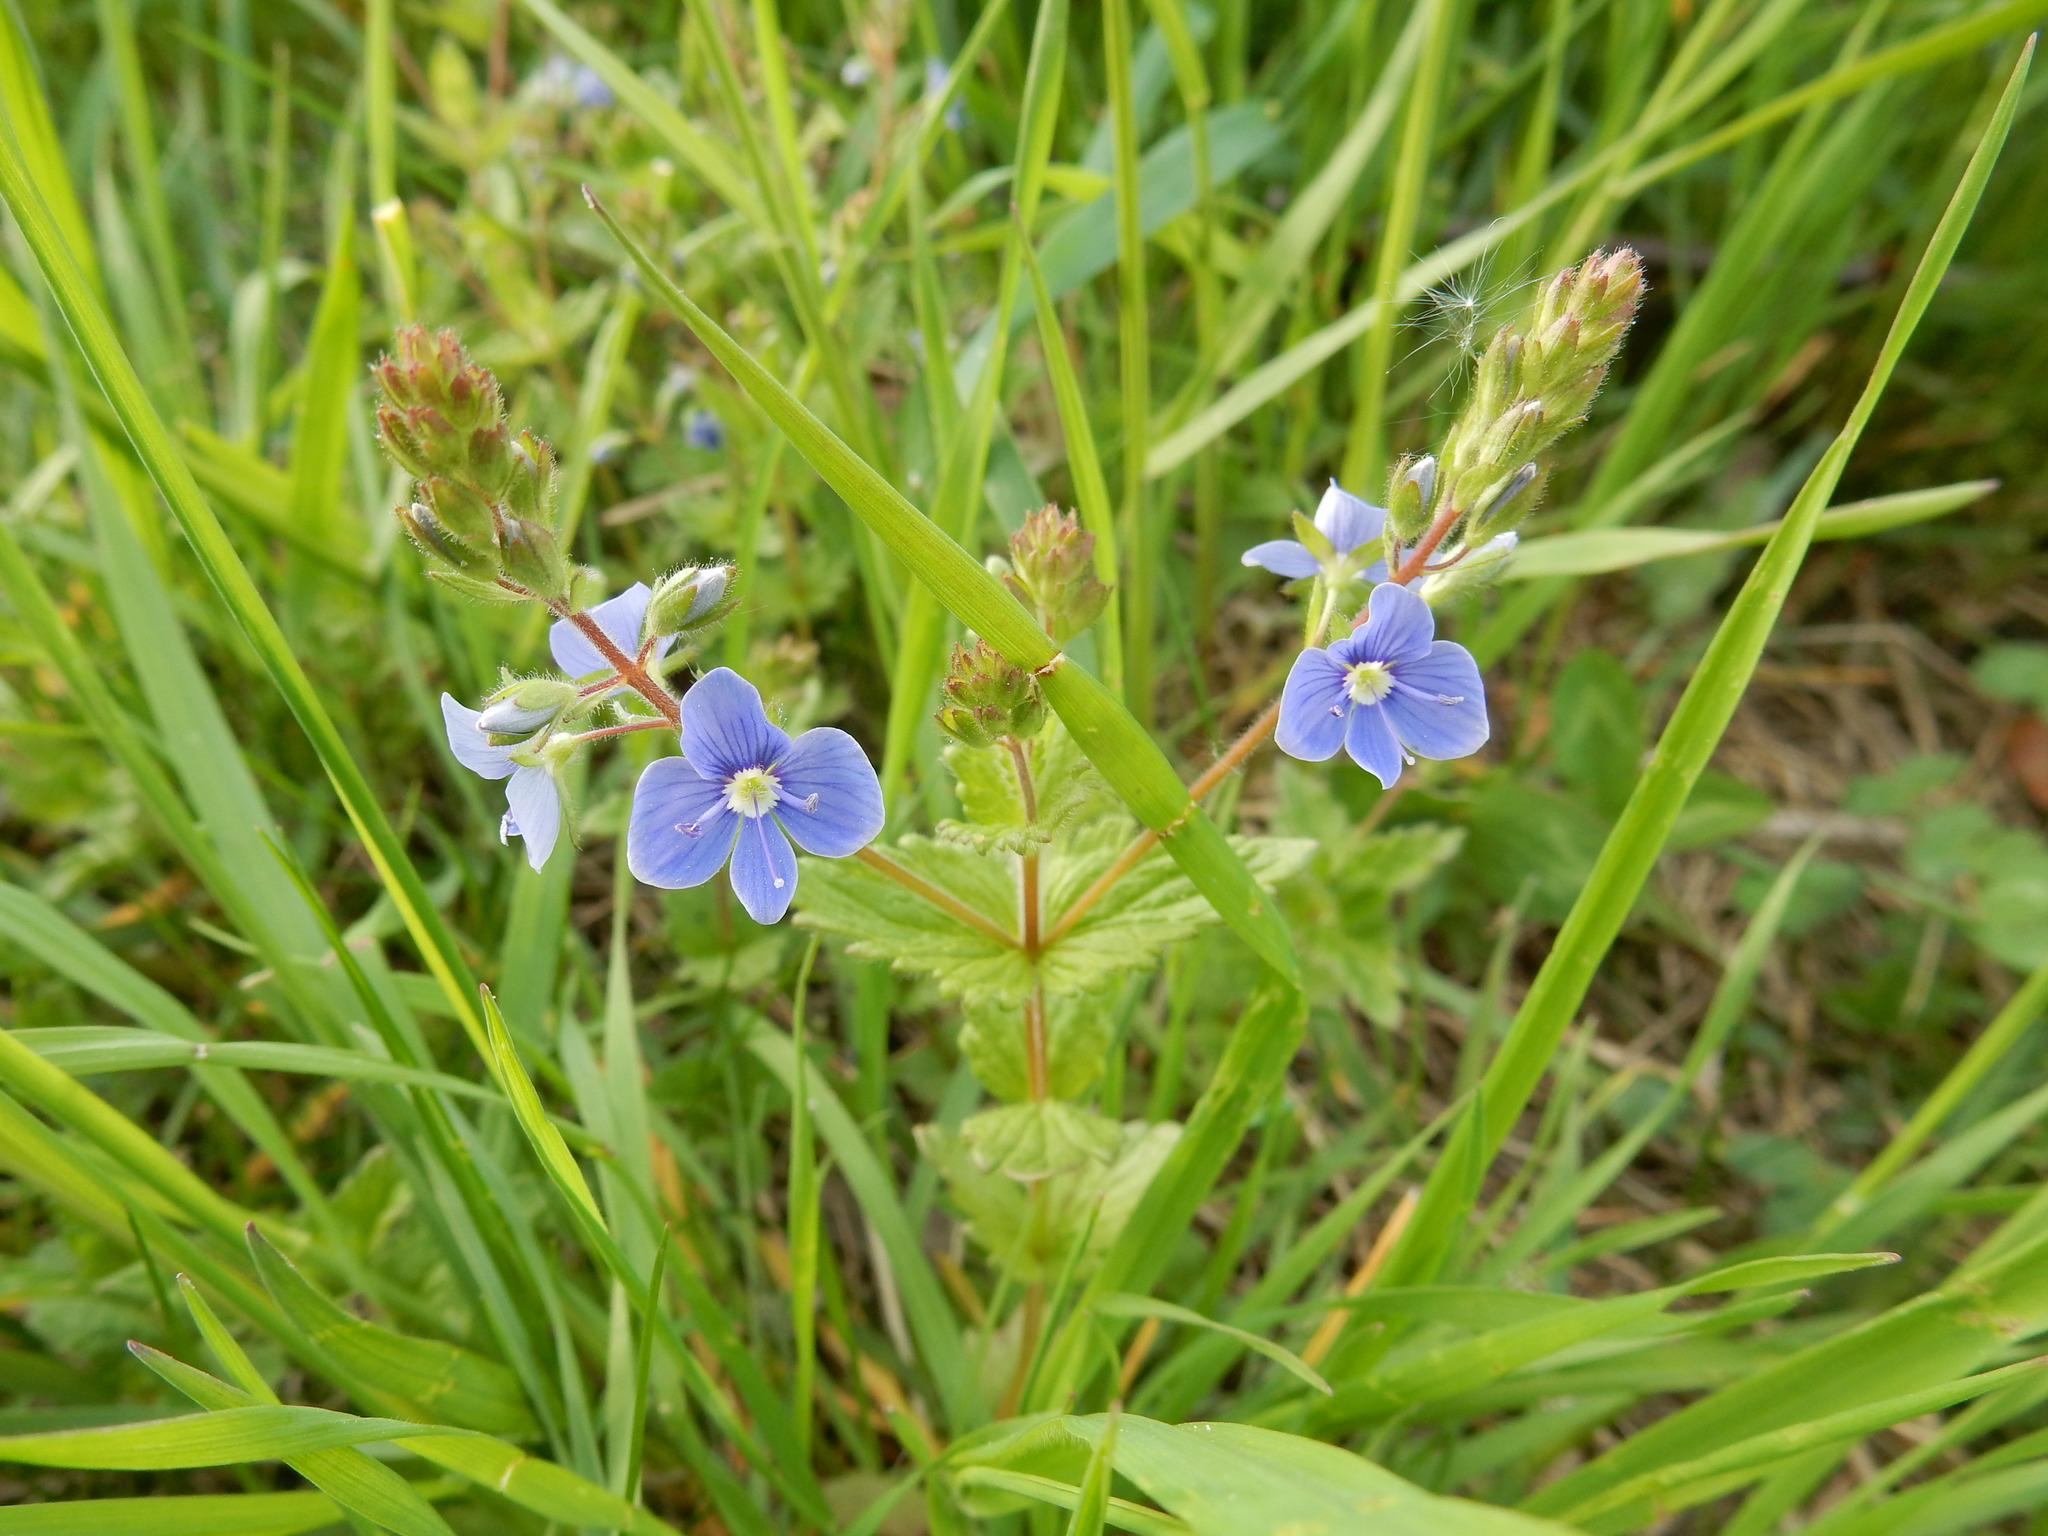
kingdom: Plantae
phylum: Tracheophyta
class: Magnoliopsida
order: Lamiales
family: Plantaginaceae
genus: Veronica
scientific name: Veronica chamaedrys
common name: Germander speedwell
